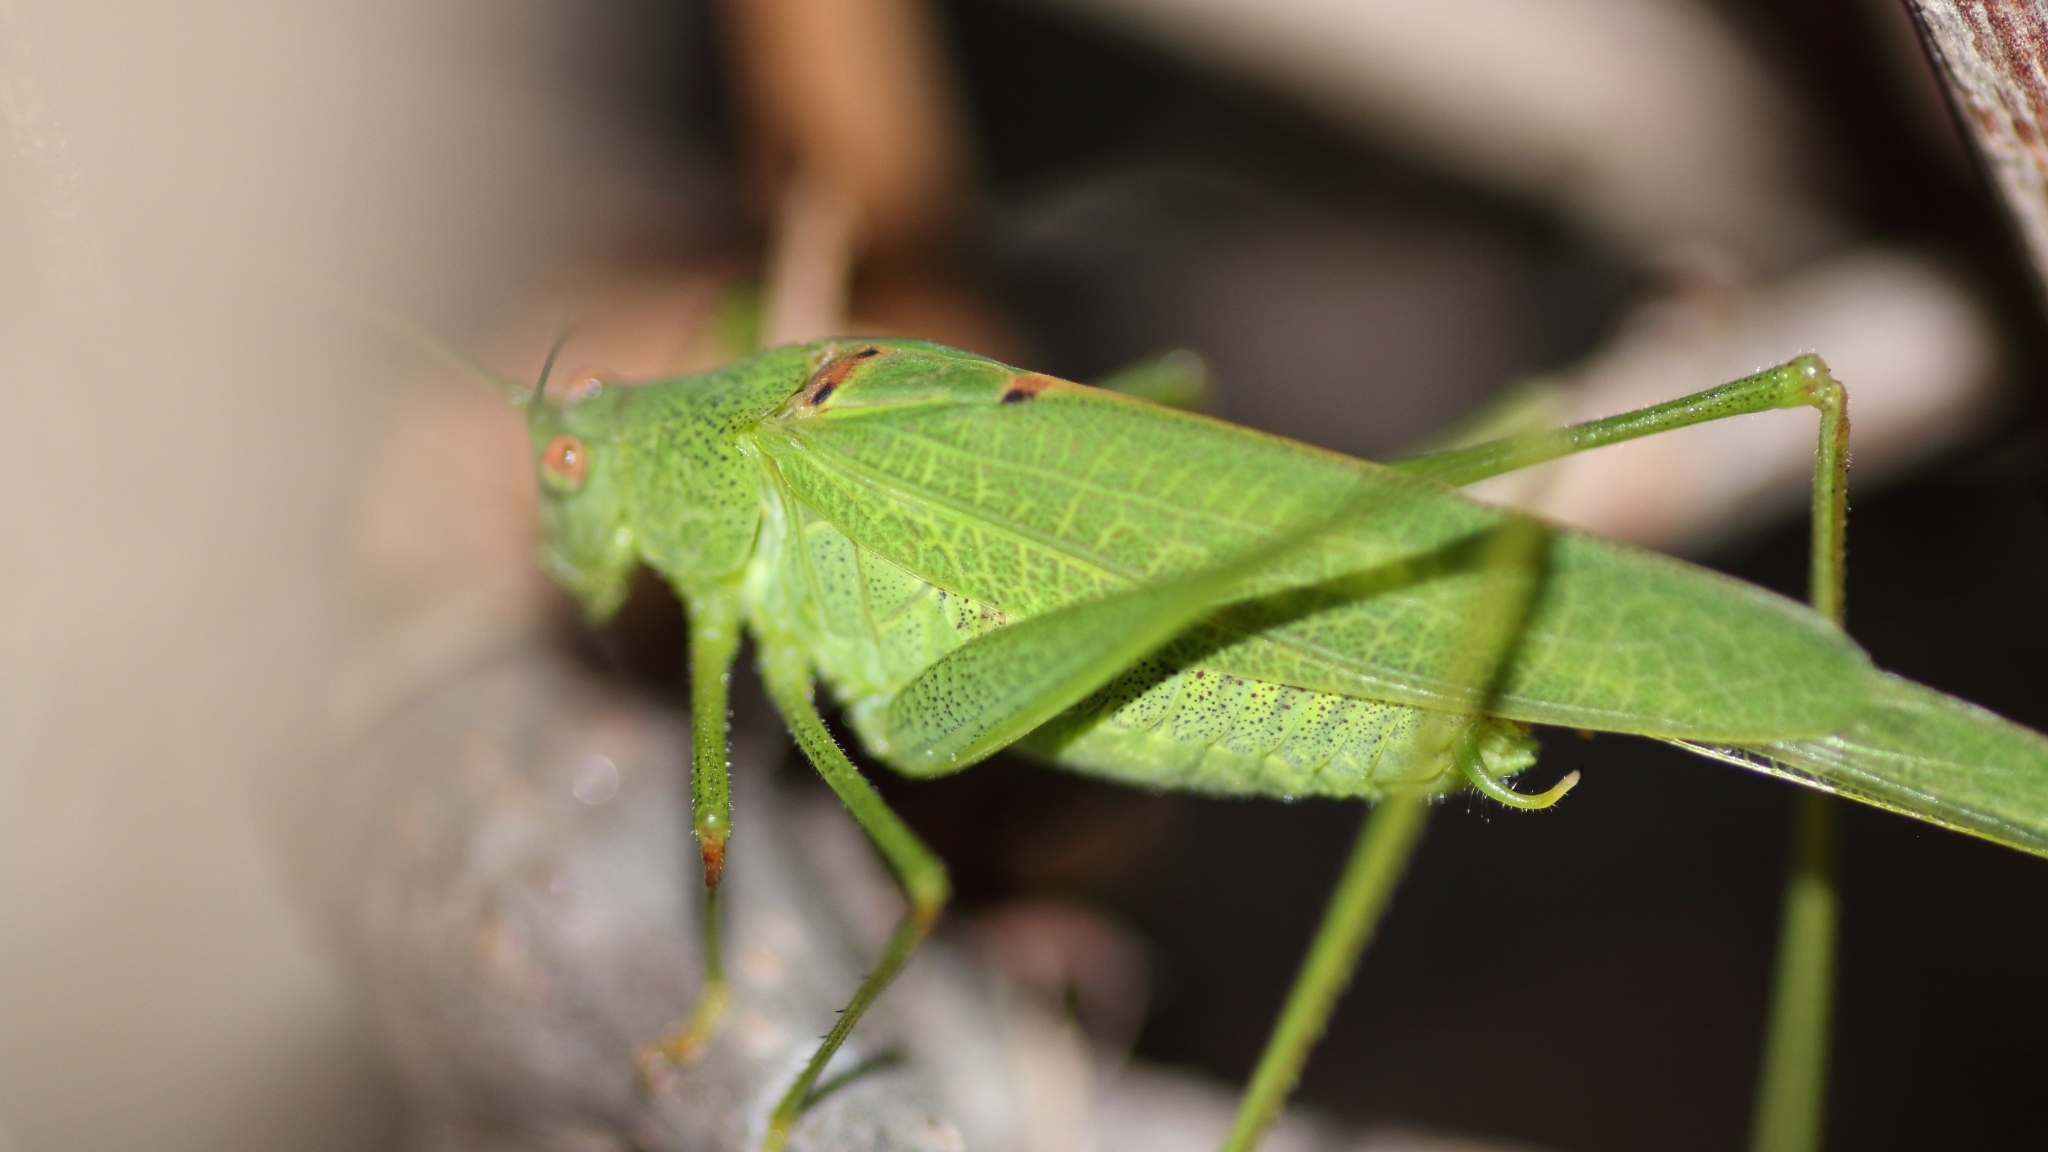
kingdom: Animalia
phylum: Arthropoda
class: Insecta
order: Orthoptera
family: Tettigoniidae
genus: Phaneroptera
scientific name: Phaneroptera nana
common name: Southern sickle bush-cricket
